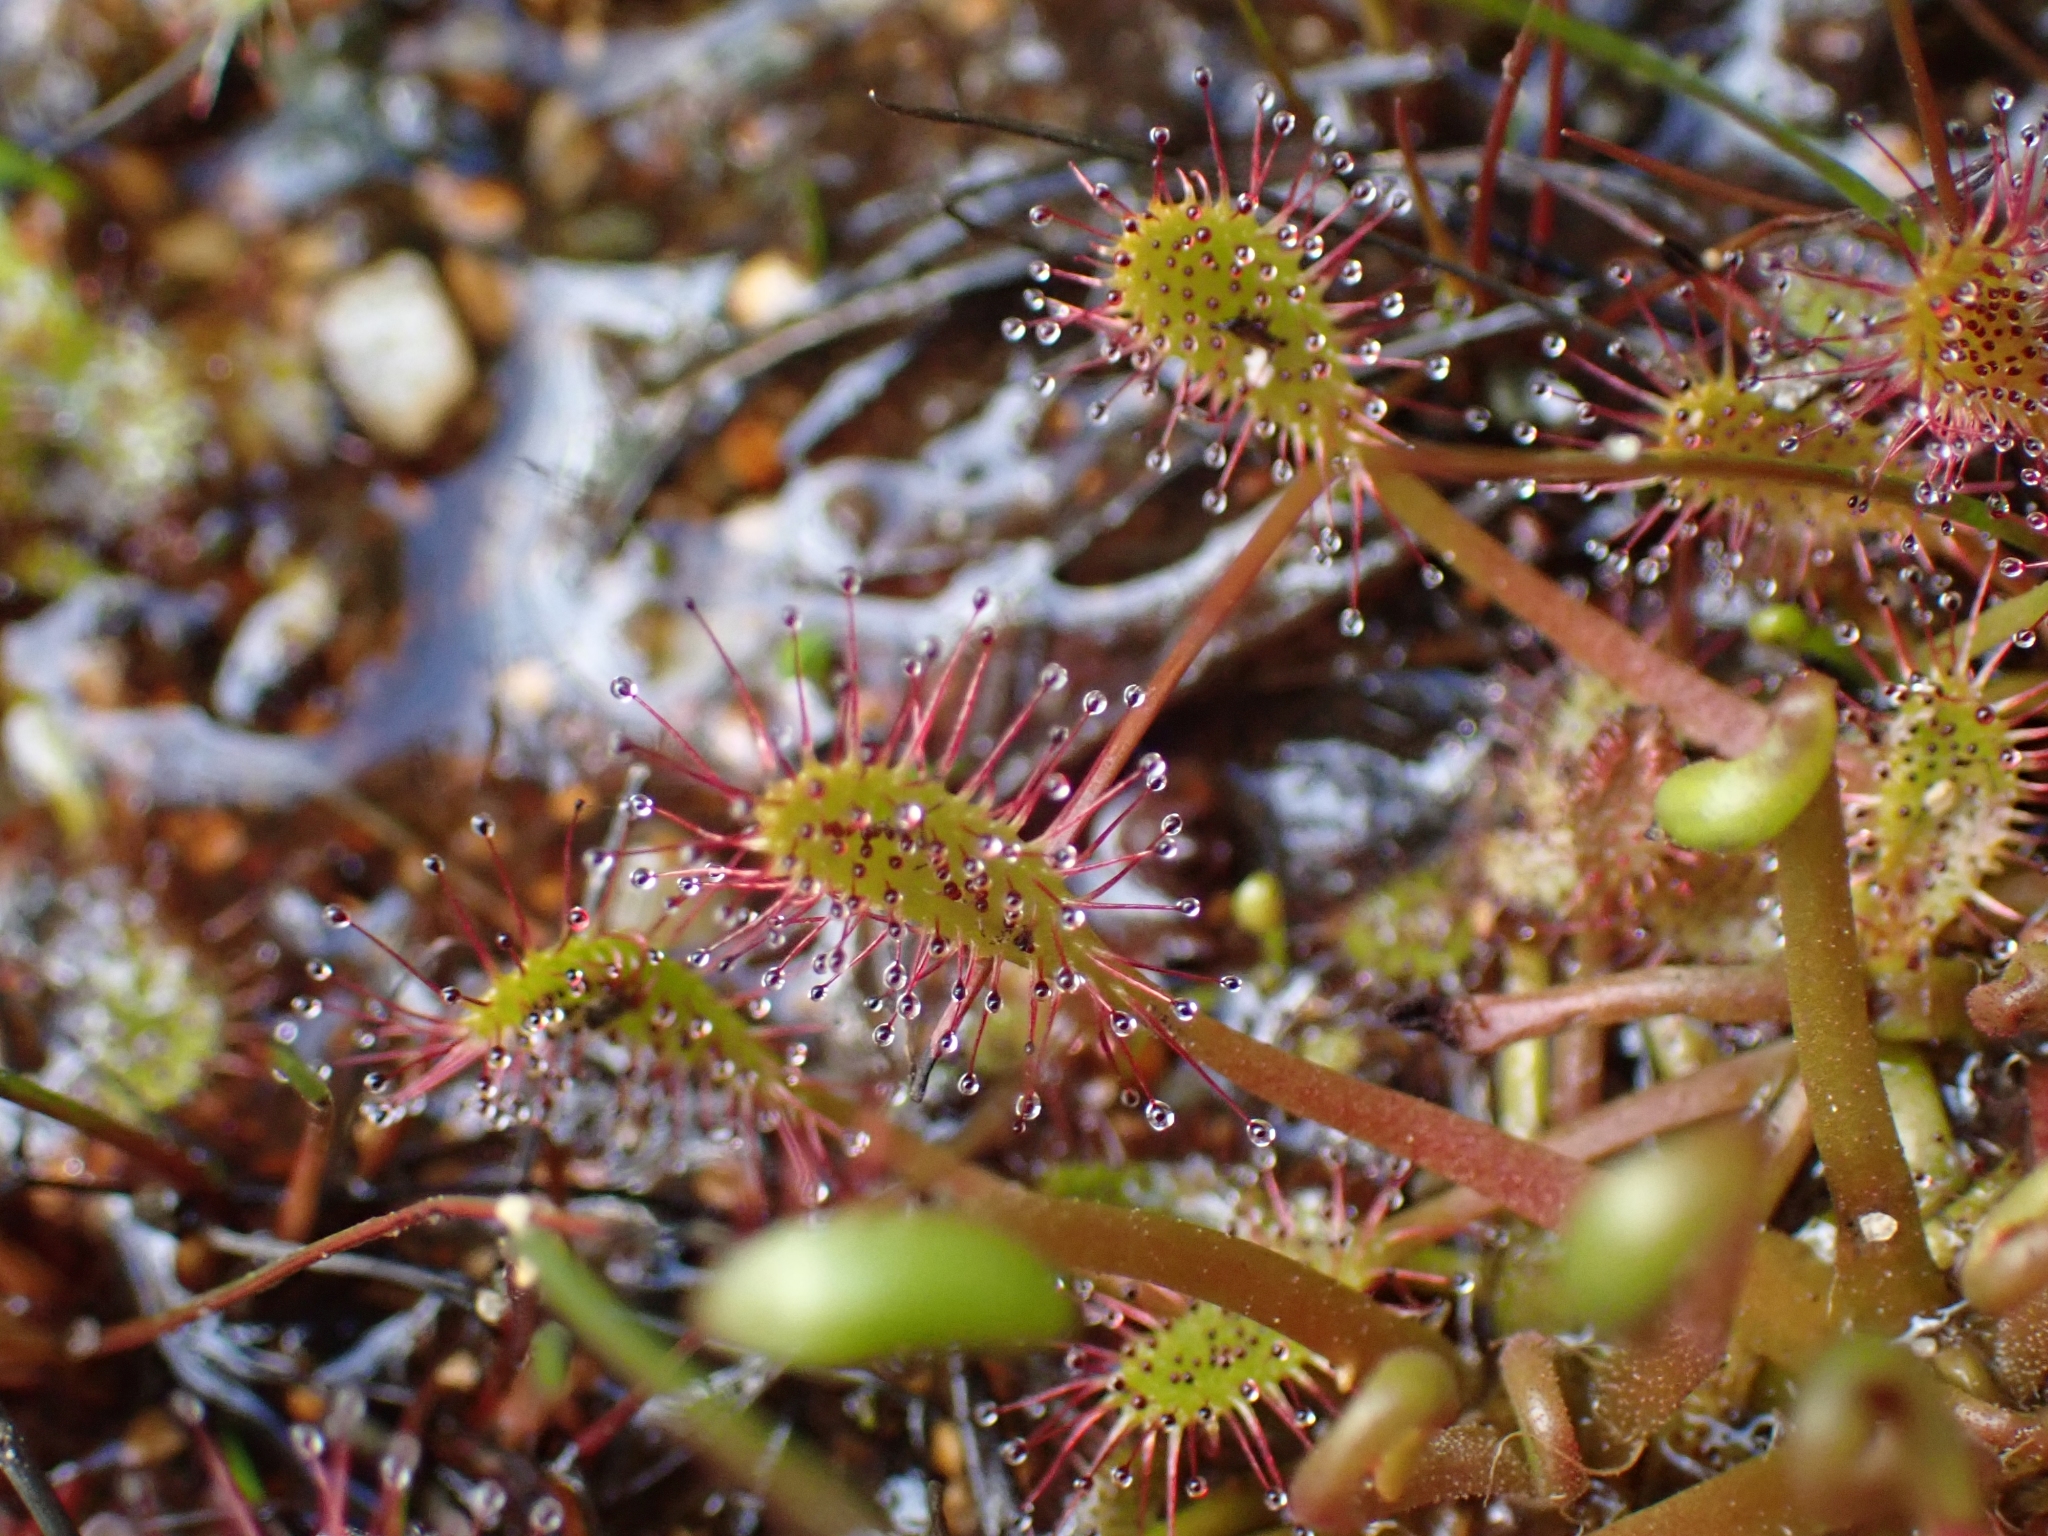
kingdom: Plantae
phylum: Tracheophyta
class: Magnoliopsida
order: Caryophyllales
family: Droseraceae
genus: Drosera
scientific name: Drosera anglica
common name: Great sundew
